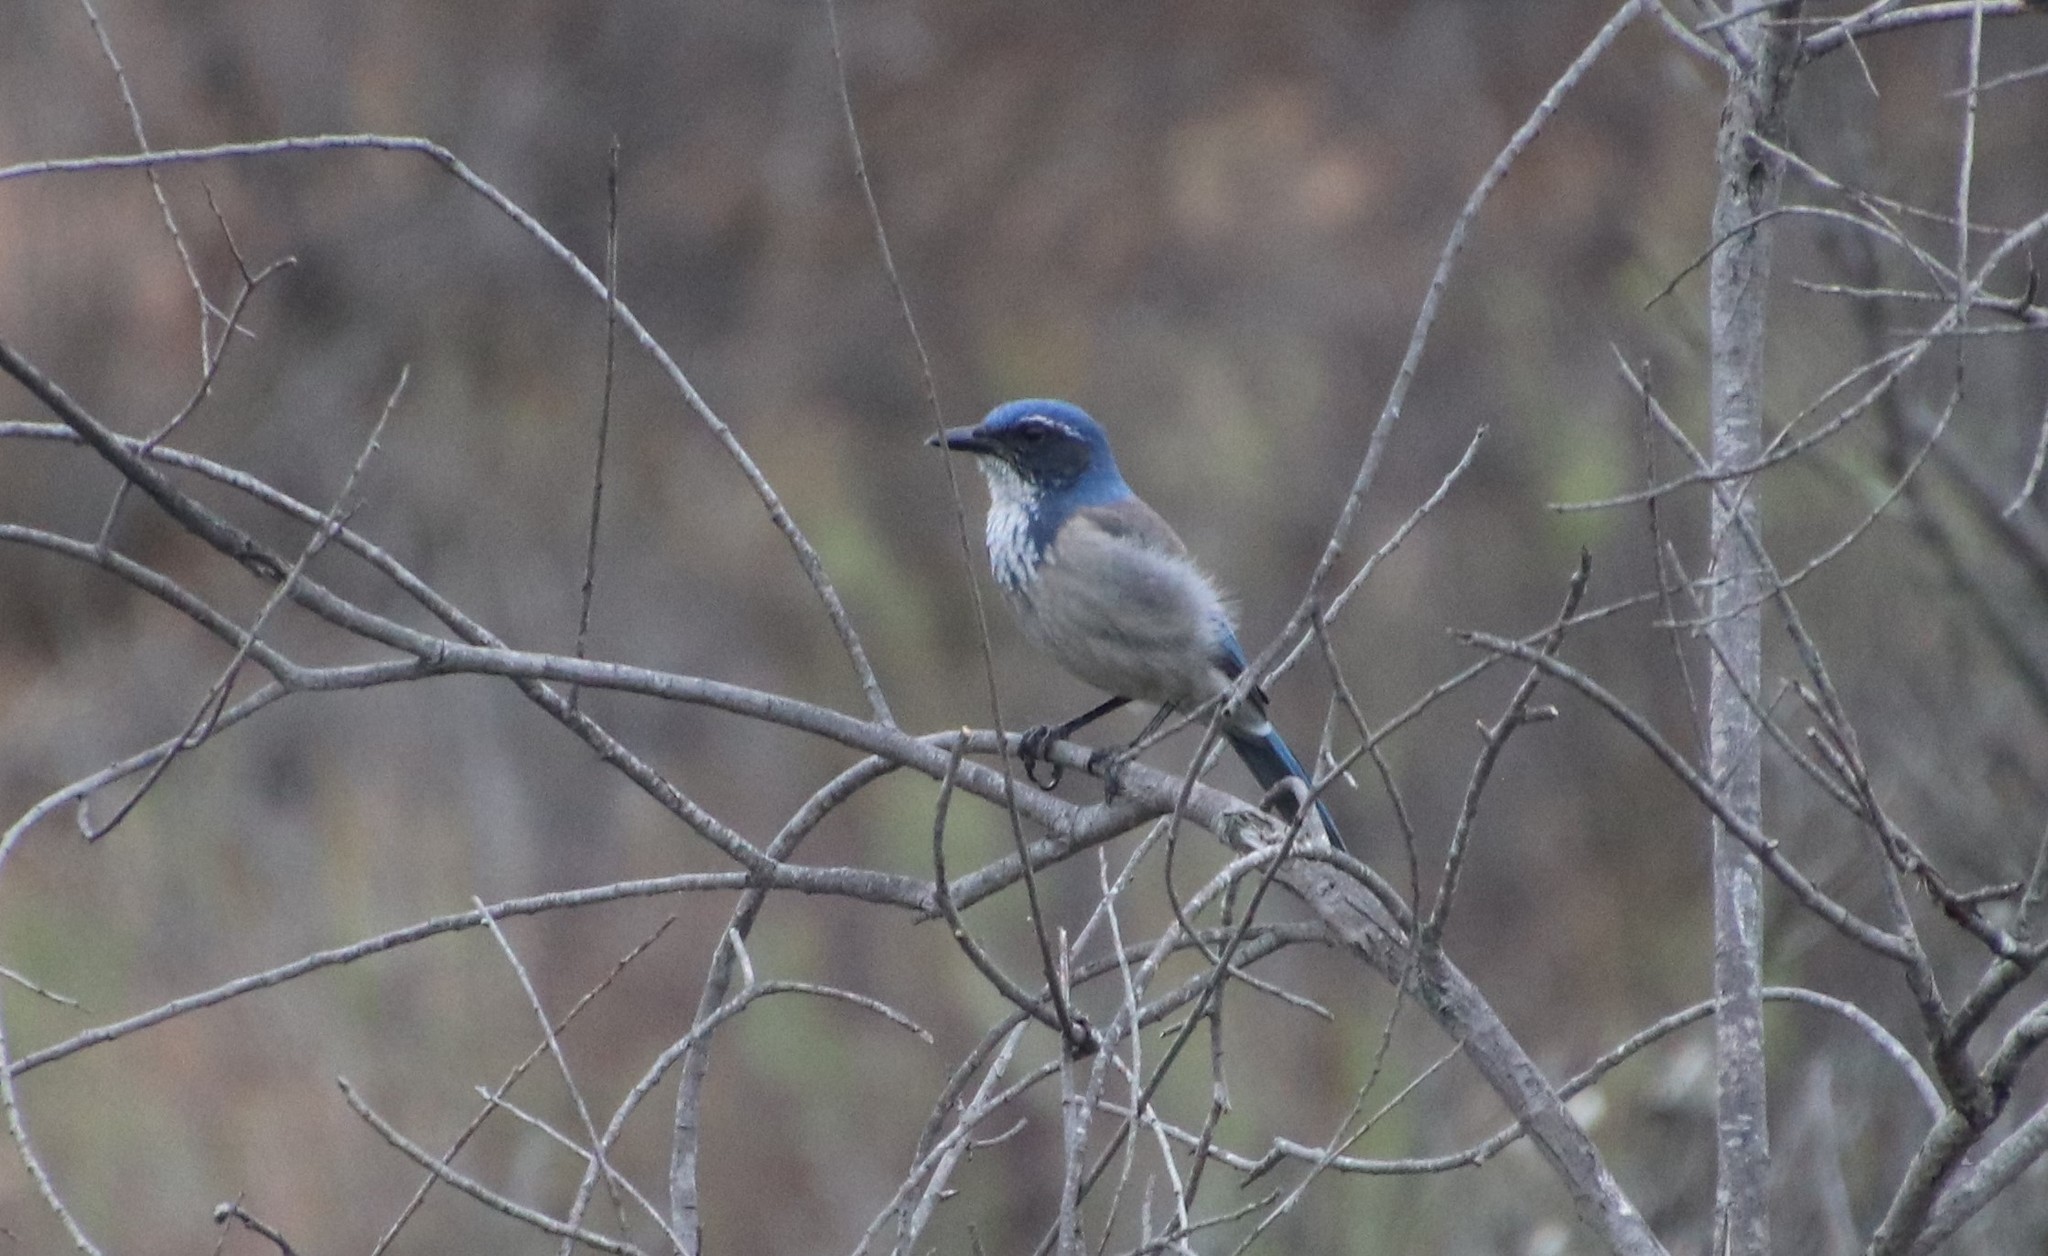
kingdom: Animalia
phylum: Chordata
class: Aves
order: Passeriformes
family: Corvidae
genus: Aphelocoma
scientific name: Aphelocoma californica
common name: California scrub-jay
